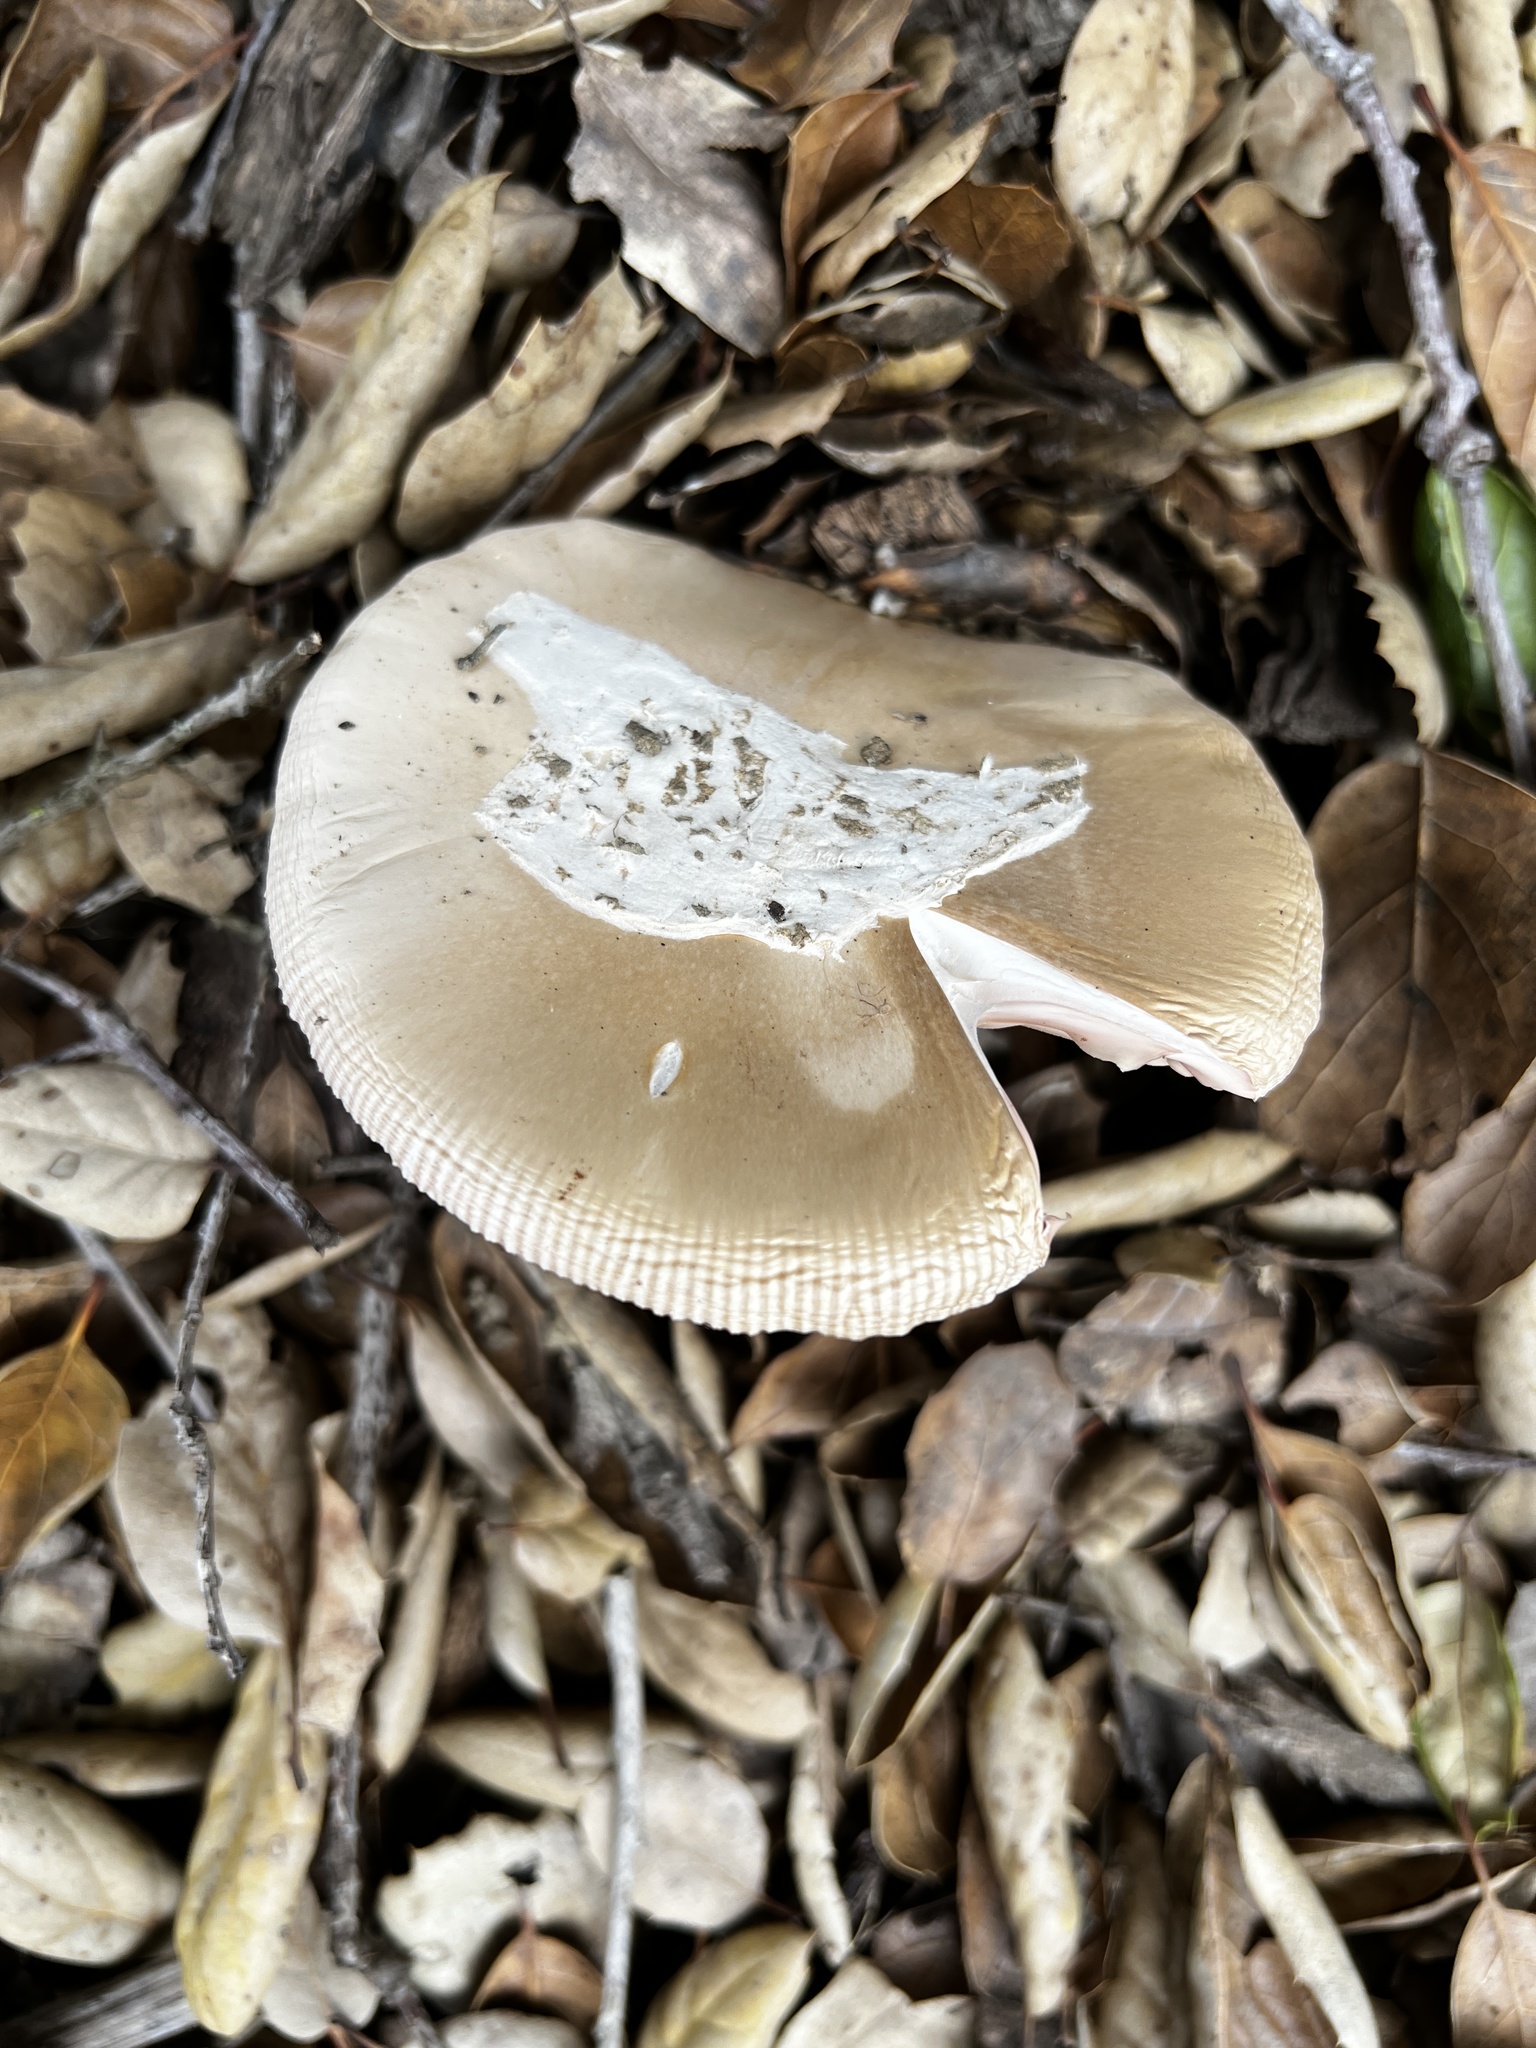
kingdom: Fungi
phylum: Basidiomycota
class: Agaricomycetes
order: Agaricales
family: Amanitaceae
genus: Amanita
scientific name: Amanita velosa
